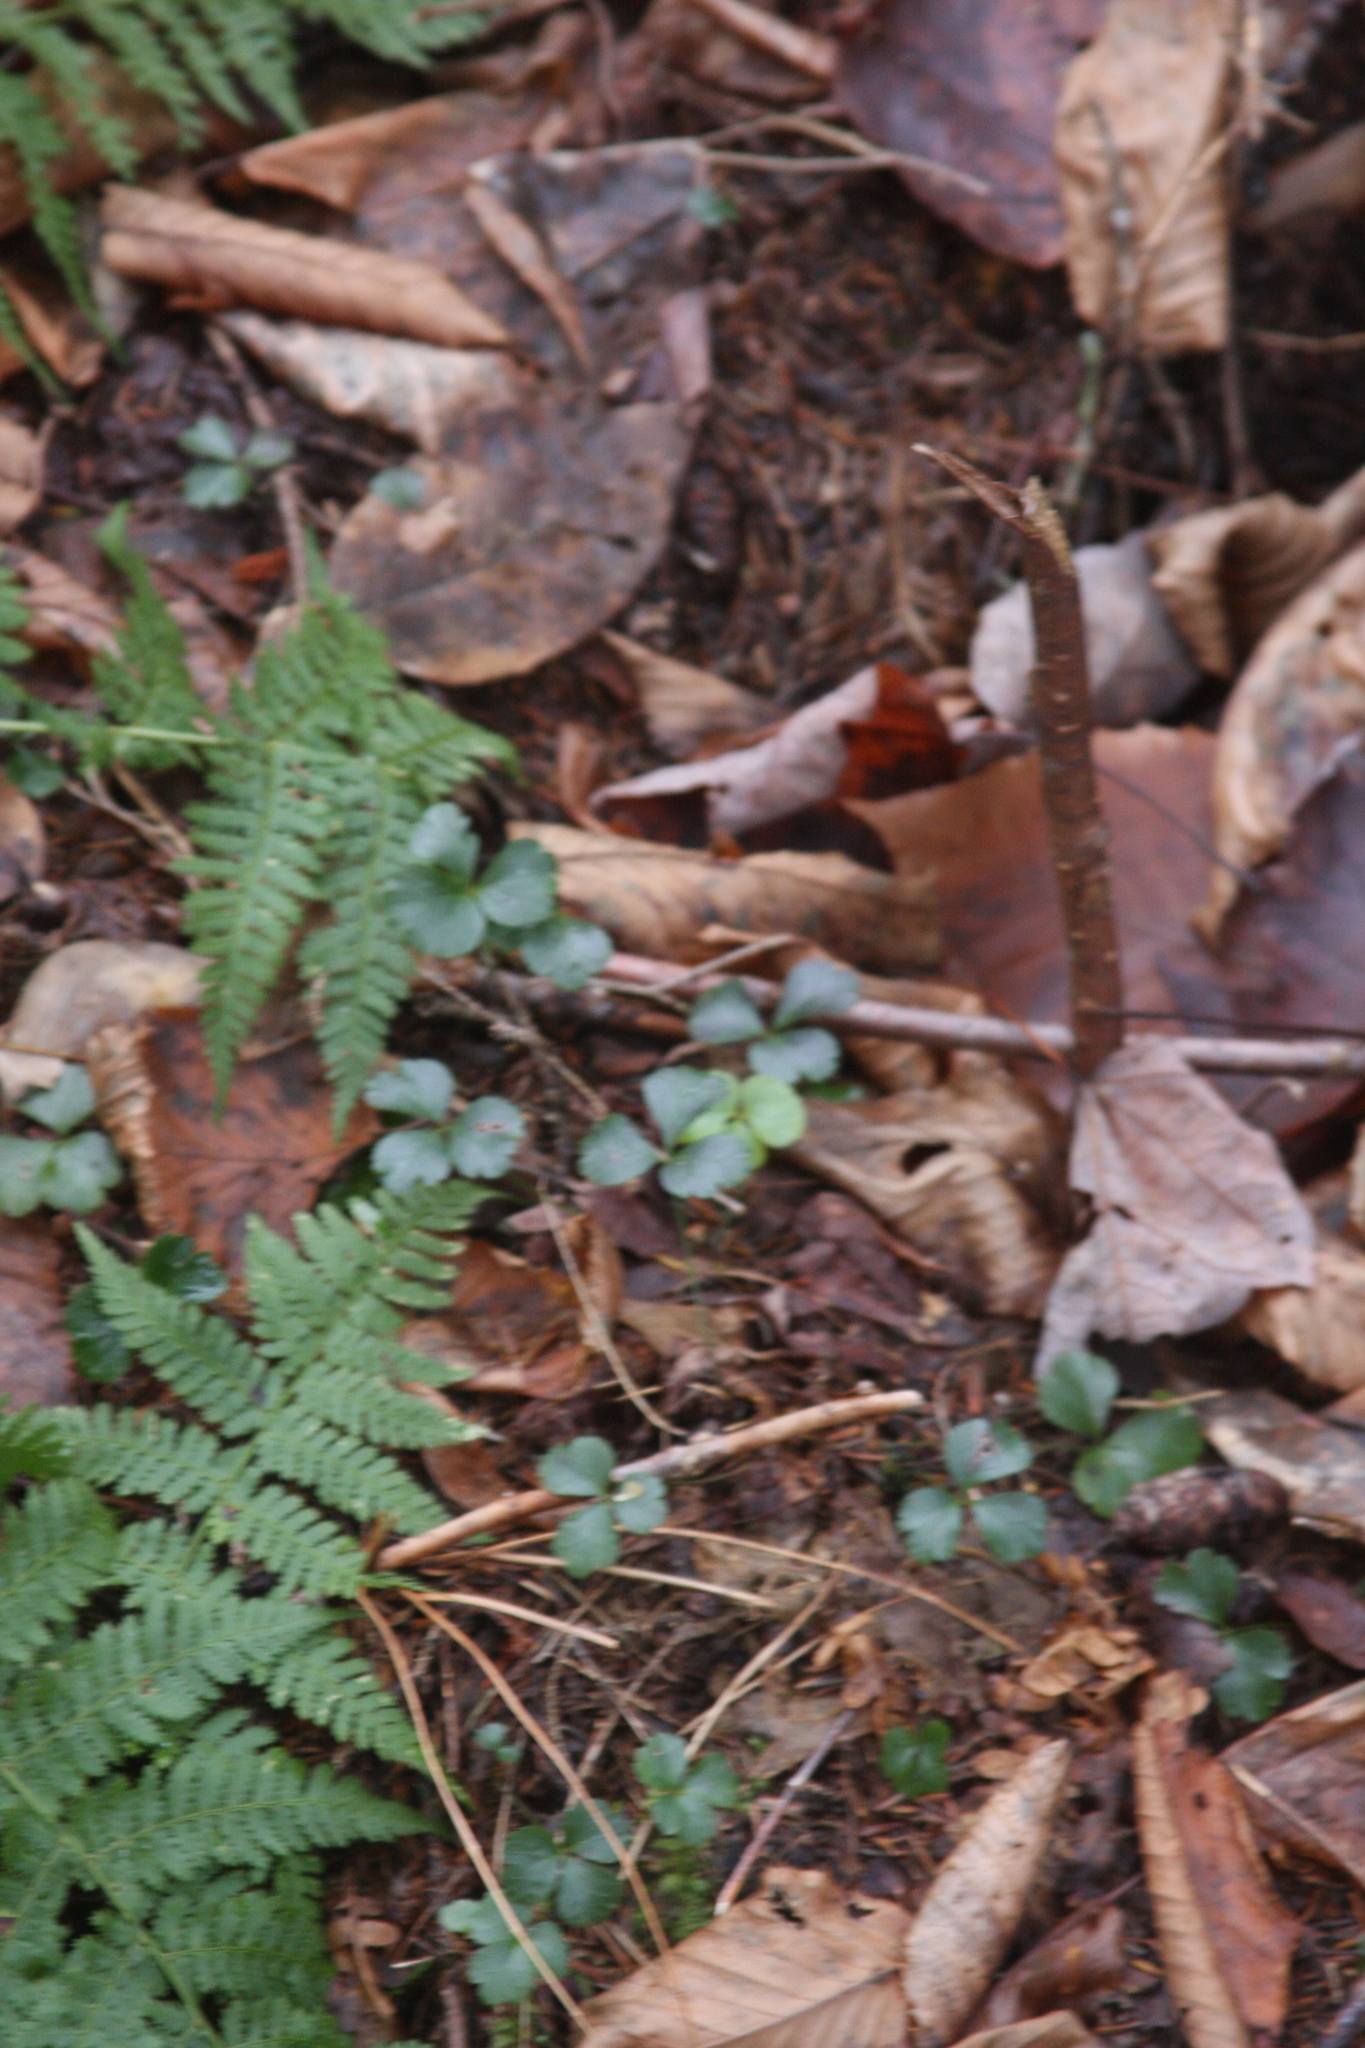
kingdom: Plantae
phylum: Tracheophyta
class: Magnoliopsida
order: Ranunculales
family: Ranunculaceae
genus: Coptis
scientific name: Coptis trifolia
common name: Canker-root
